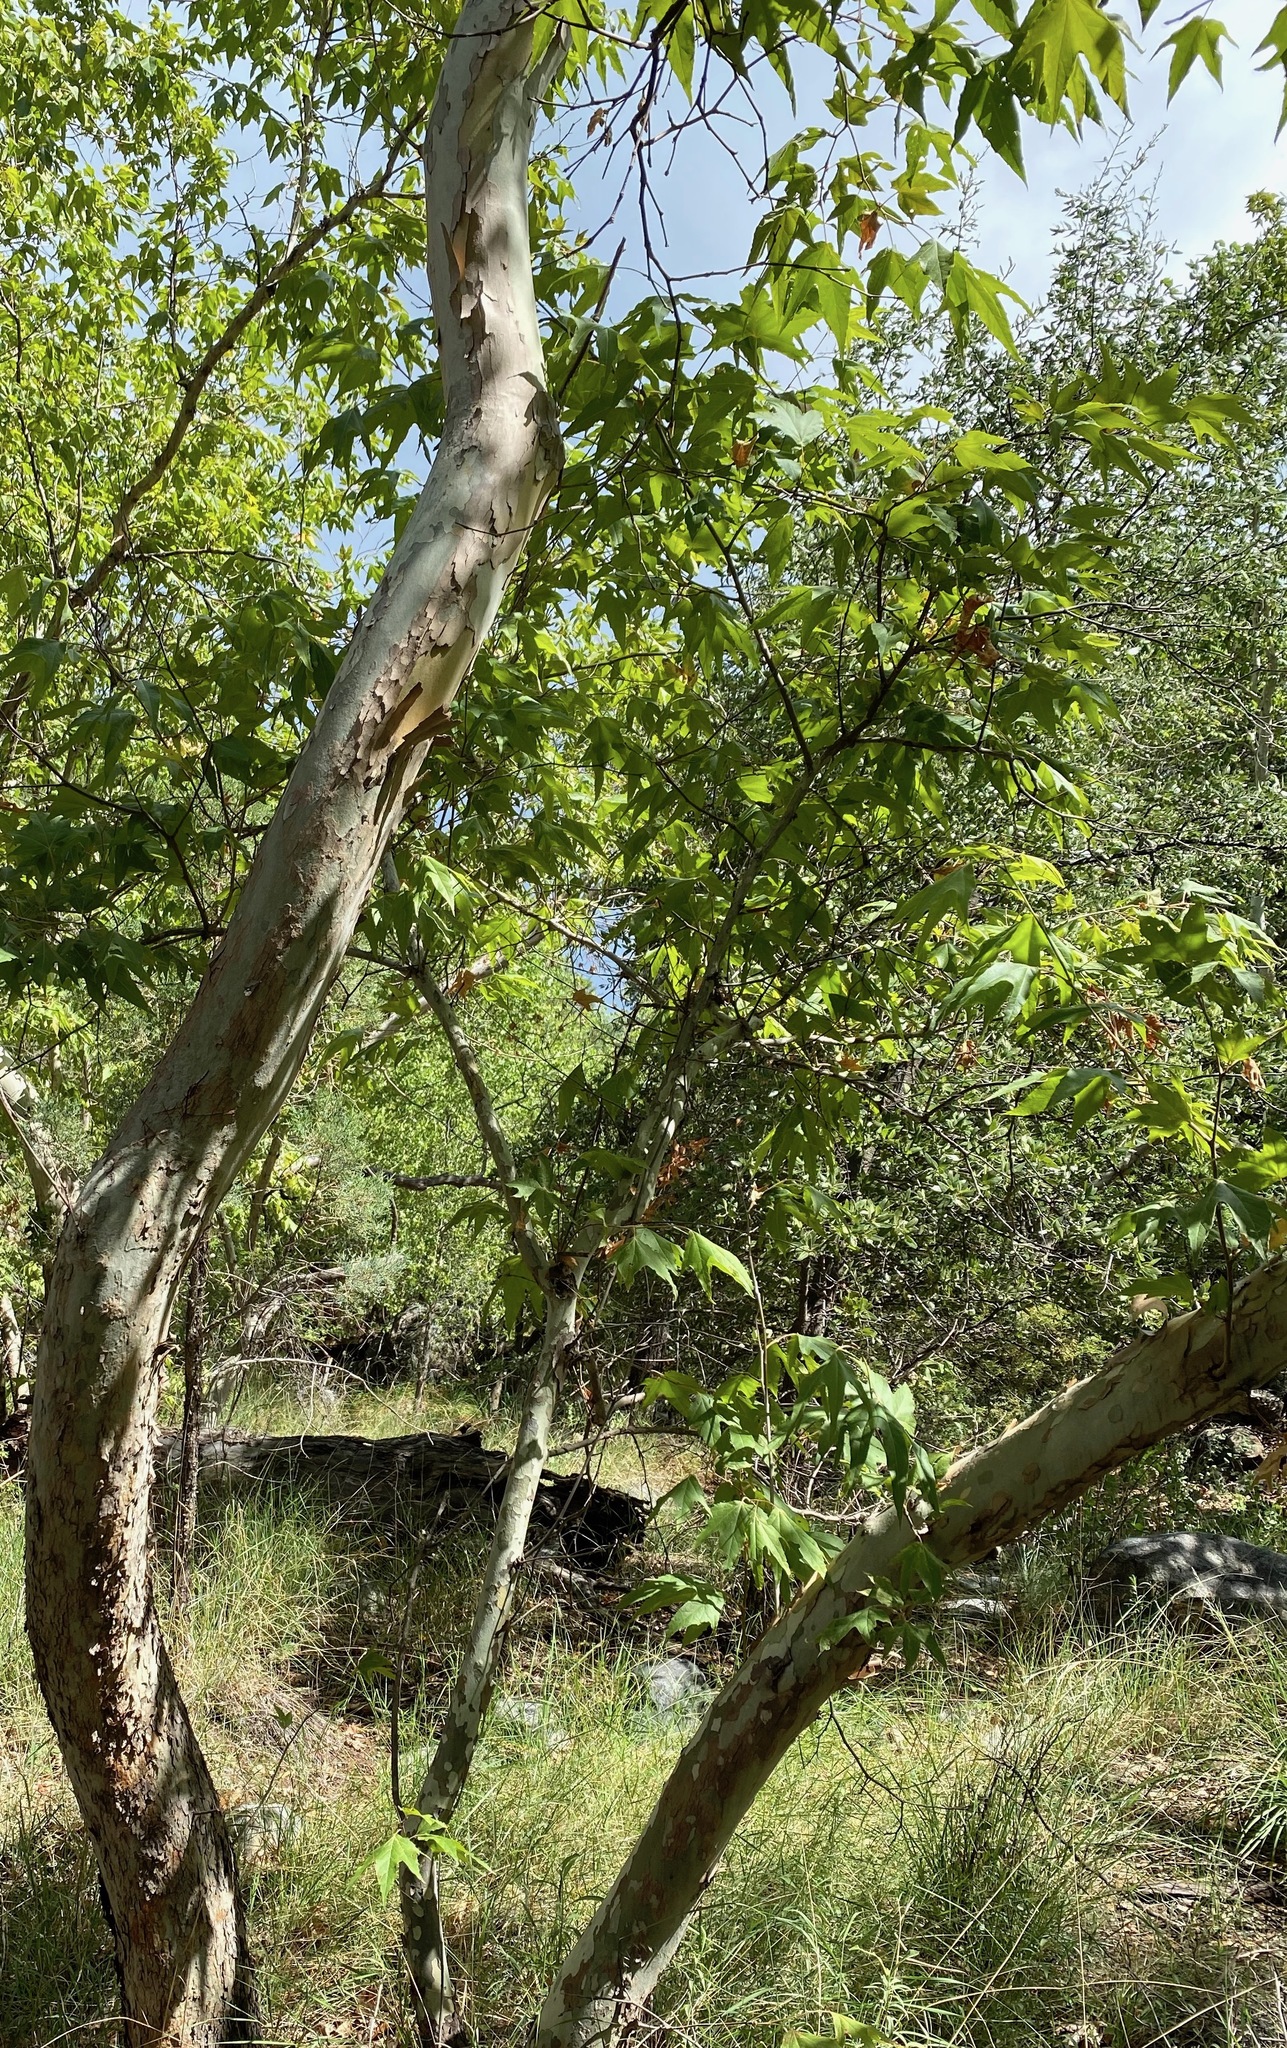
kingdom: Plantae
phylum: Tracheophyta
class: Magnoliopsida
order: Proteales
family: Platanaceae
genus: Platanus
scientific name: Platanus wrightii
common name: Arizona sycamore
